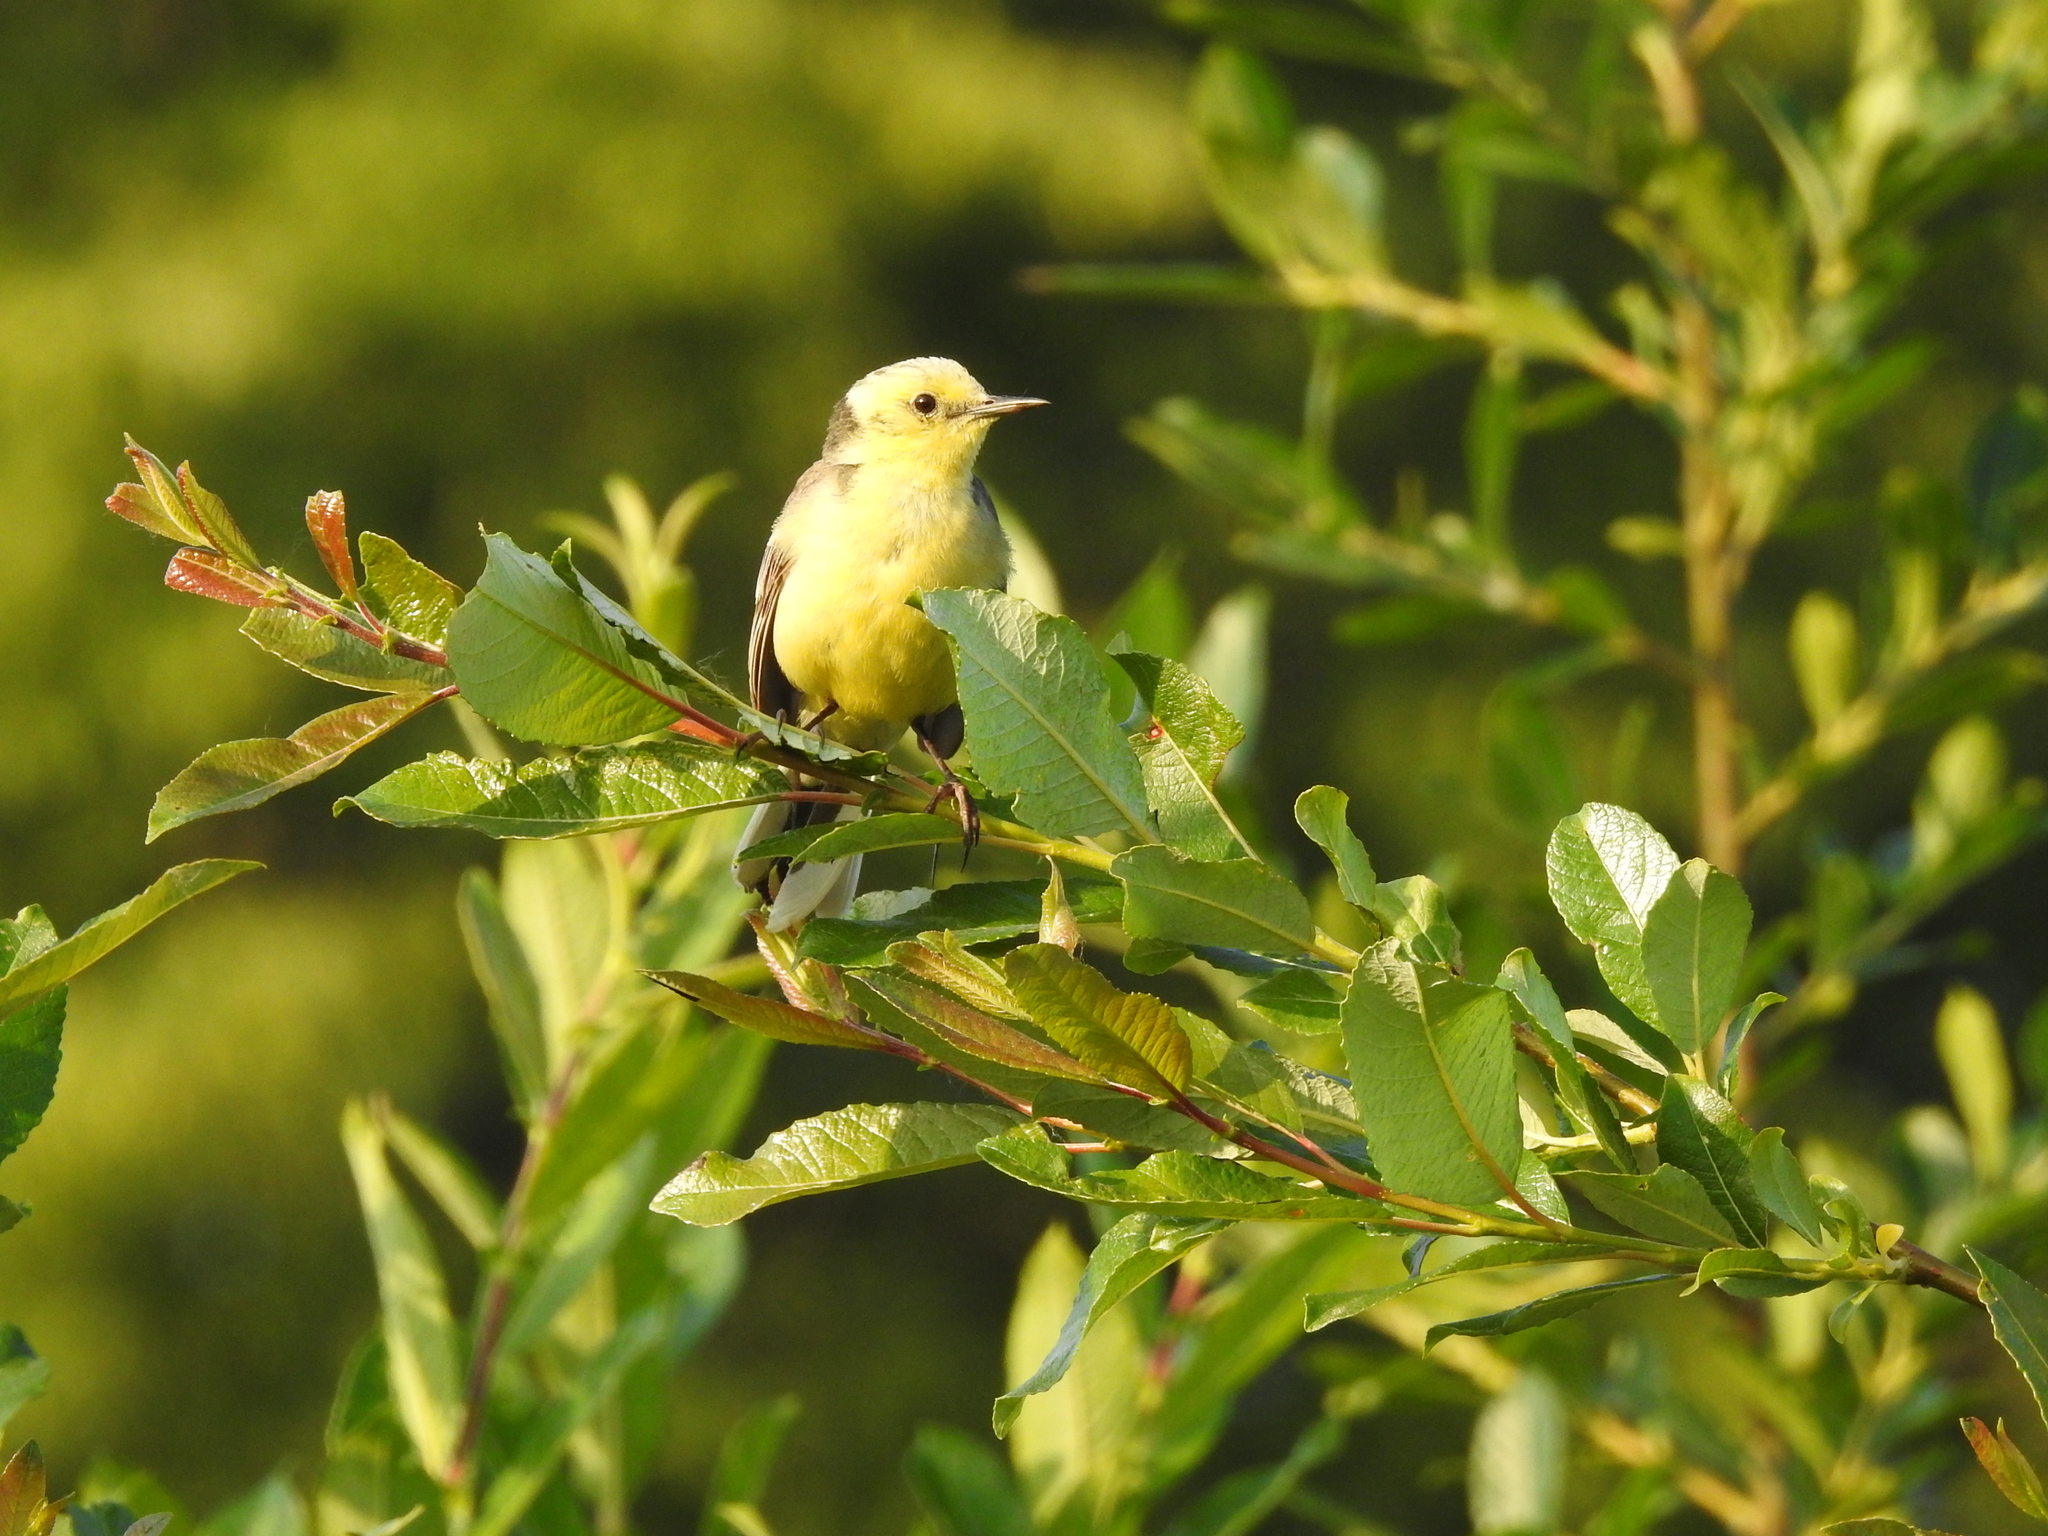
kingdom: Animalia
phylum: Chordata
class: Aves
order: Passeriformes
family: Motacillidae
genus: Motacilla
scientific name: Motacilla citreola
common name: Citrine wagtail
